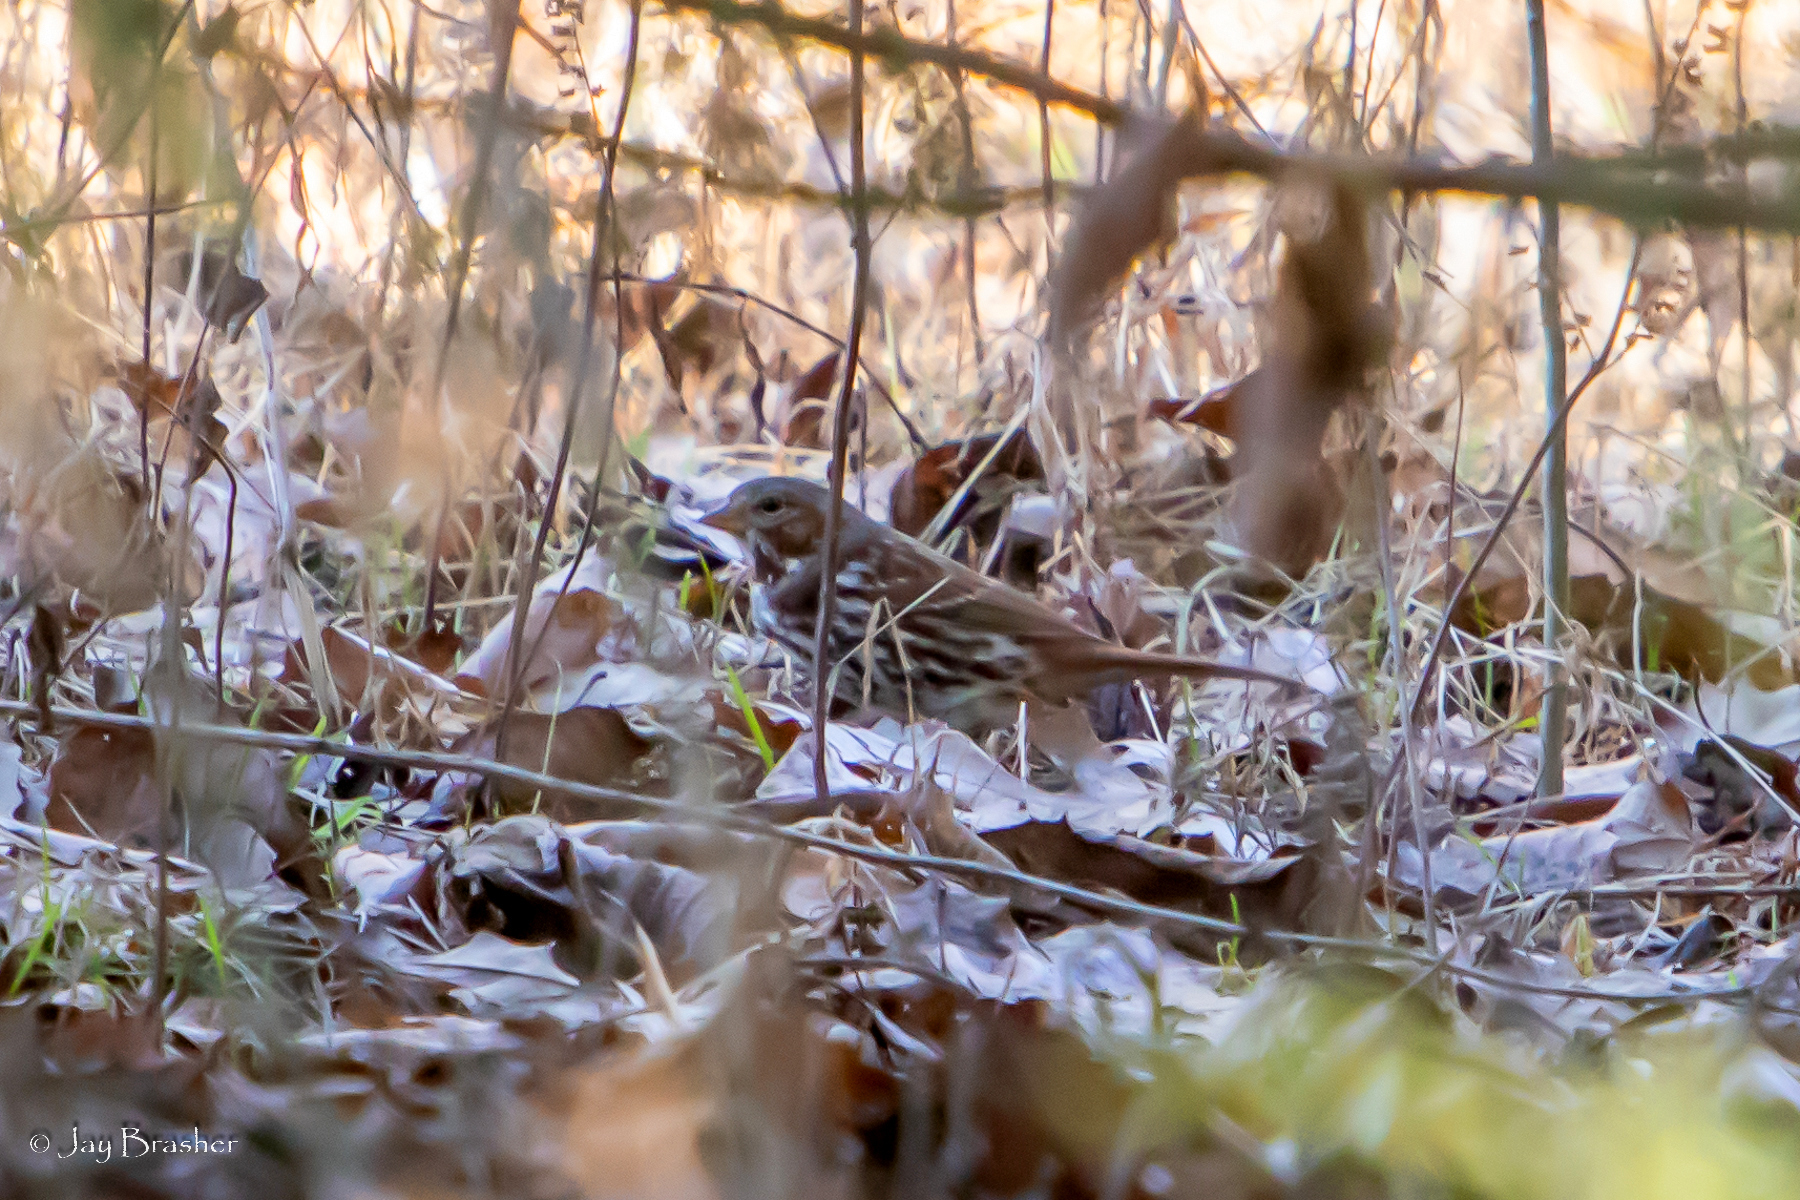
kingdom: Animalia
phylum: Chordata
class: Aves
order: Passeriformes
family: Passerellidae
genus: Passerella
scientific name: Passerella iliaca
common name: Fox sparrow
